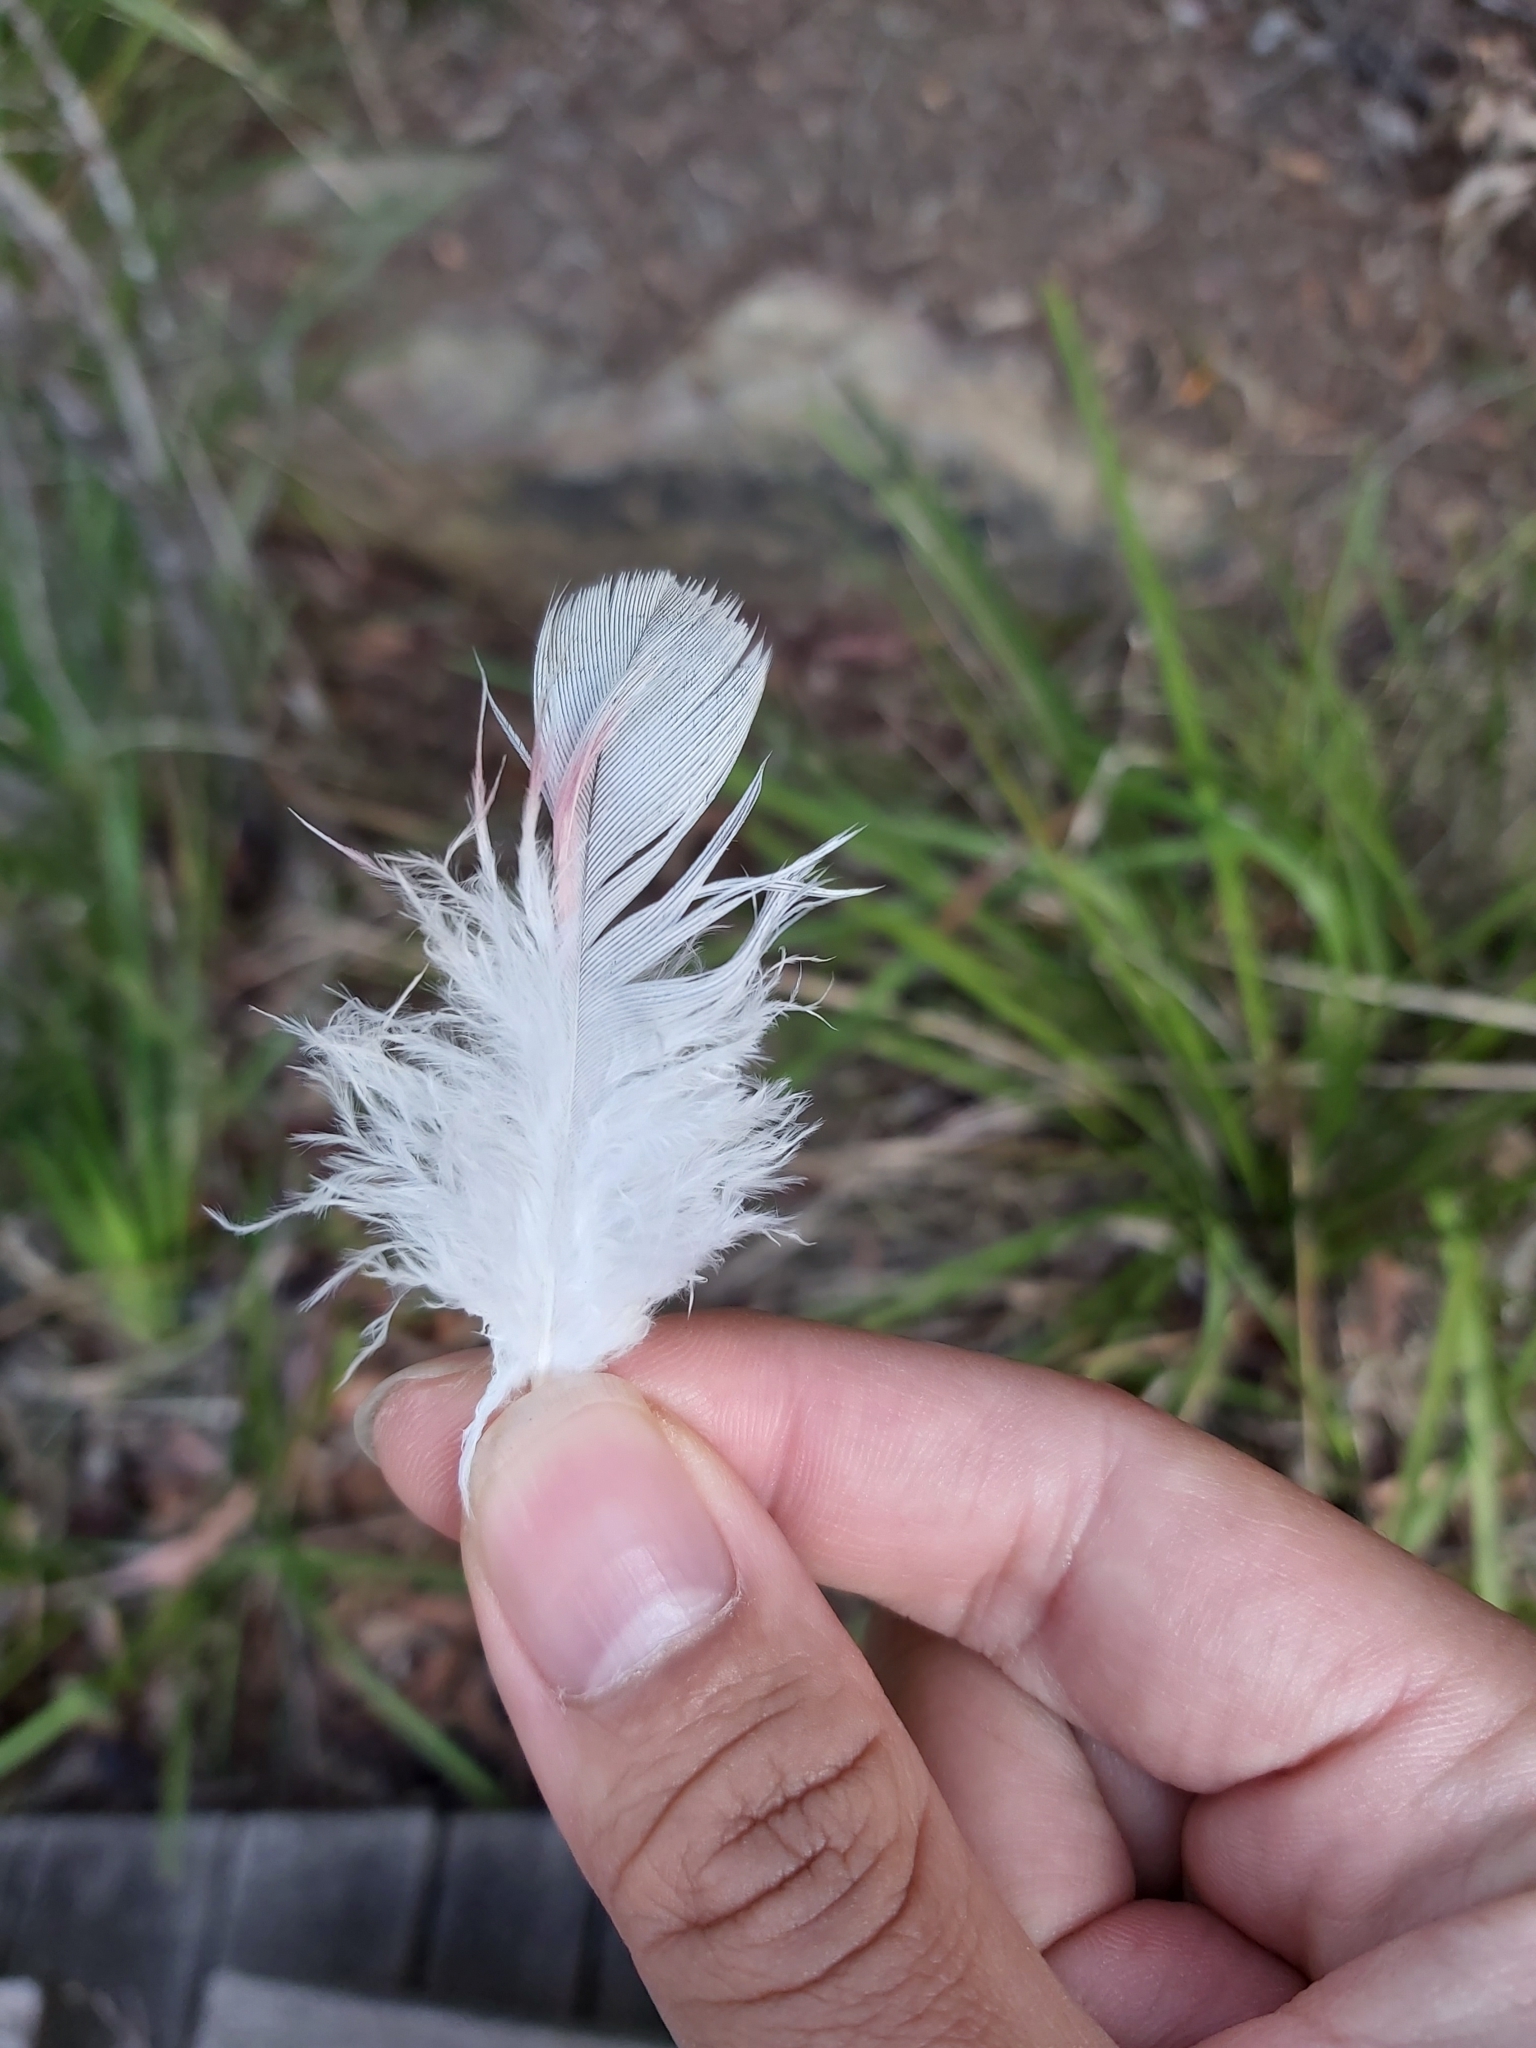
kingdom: Animalia
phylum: Chordata
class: Aves
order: Psittaciformes
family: Psittacidae
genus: Eolophus
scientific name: Eolophus roseicapilla
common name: Galah
